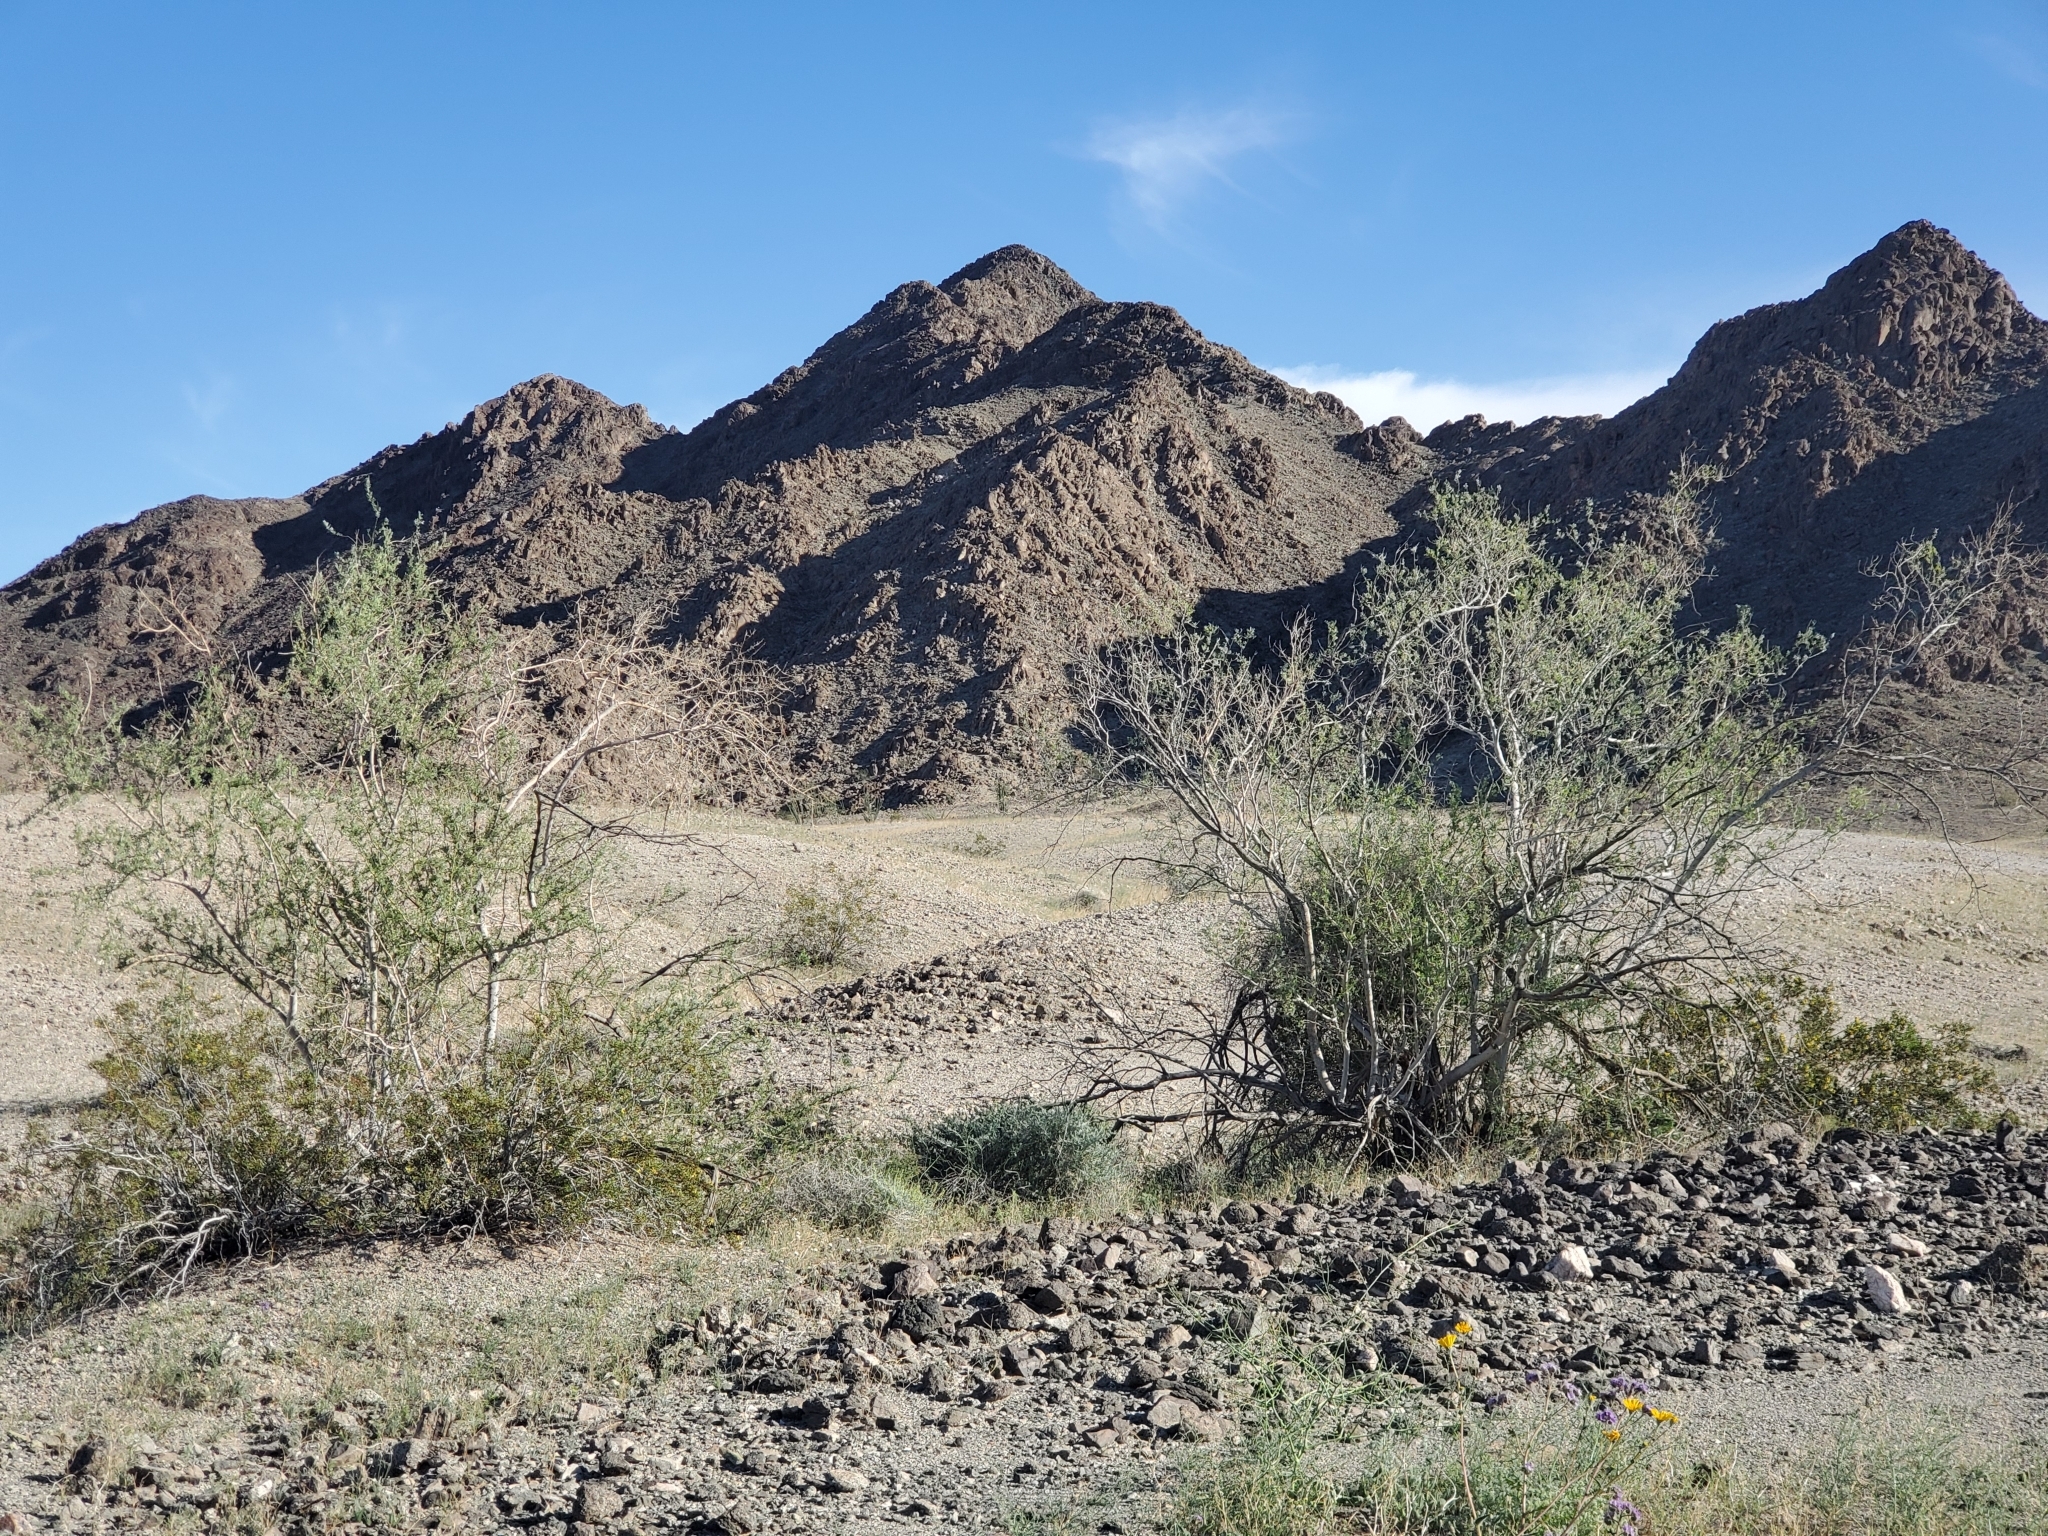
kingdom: Plantae
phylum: Tracheophyta
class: Magnoliopsida
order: Fabales
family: Fabaceae
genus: Olneya
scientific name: Olneya tesota
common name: Desert ironwood
